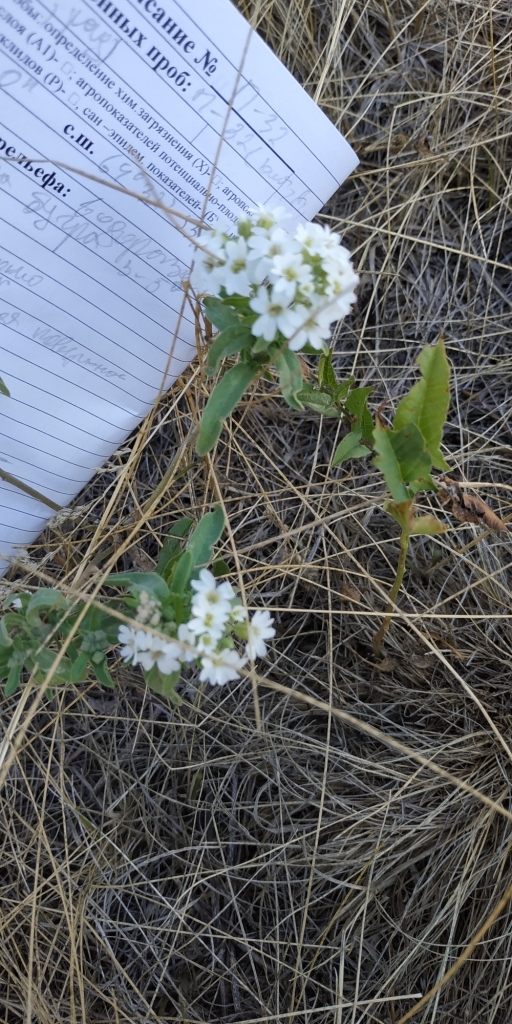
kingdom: Plantae
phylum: Tracheophyta
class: Magnoliopsida
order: Brassicales
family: Brassicaceae
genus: Berteroa
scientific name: Berteroa incana
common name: Hoary alison
